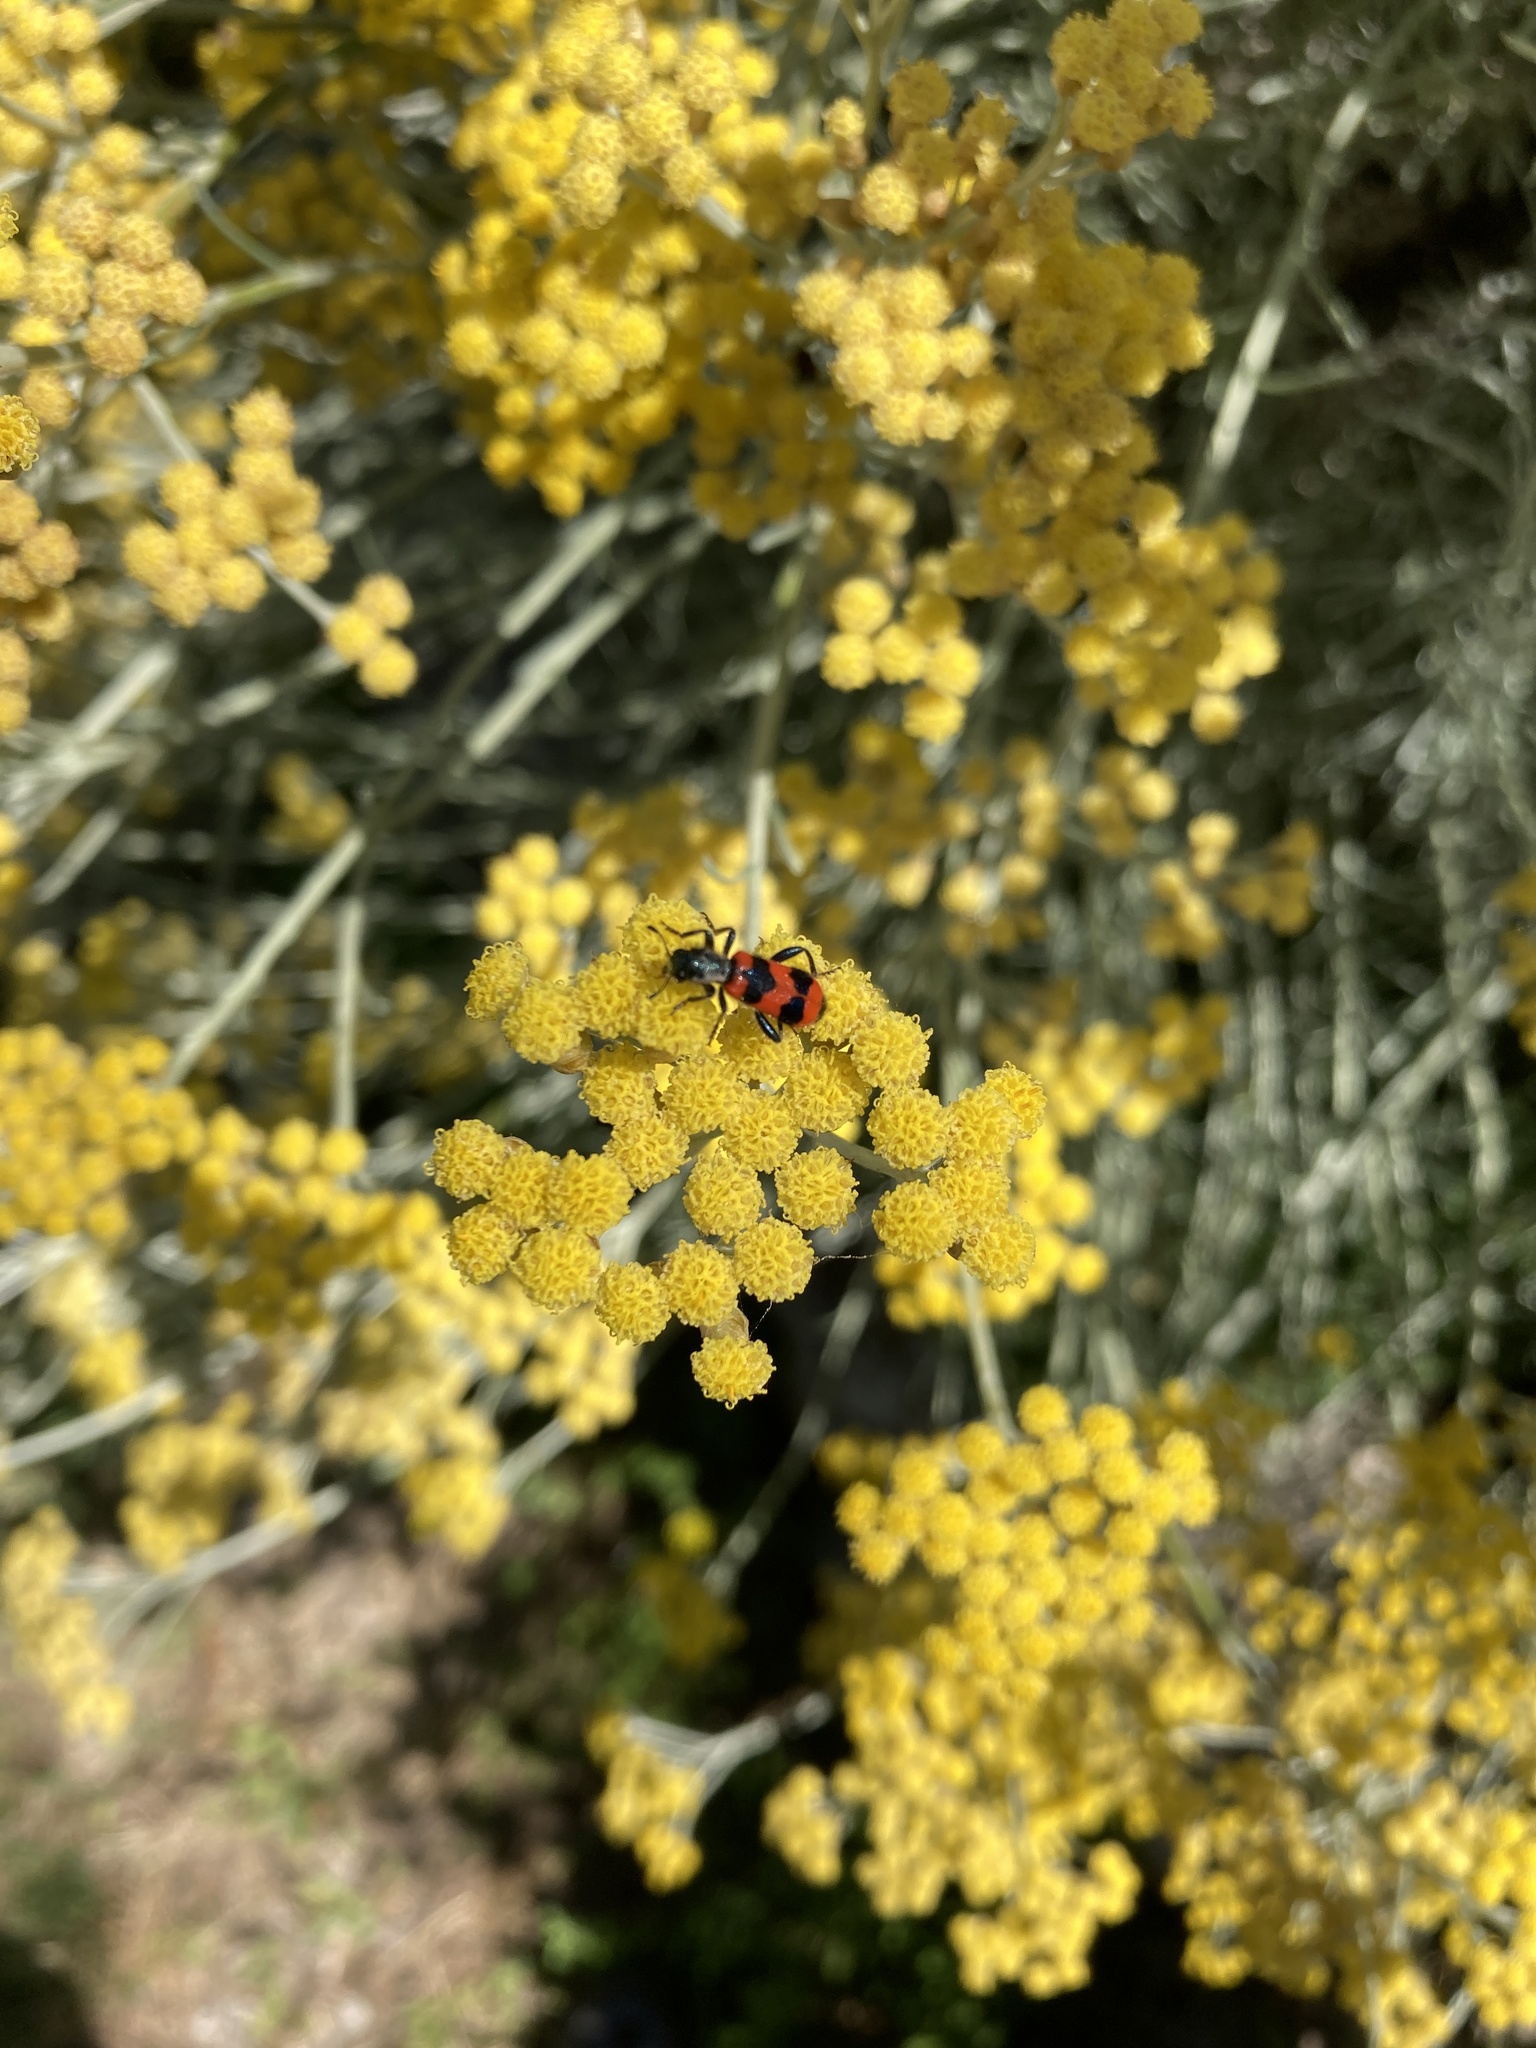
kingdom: Animalia
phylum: Arthropoda
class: Insecta
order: Coleoptera
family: Cleridae
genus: Trichodes
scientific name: Trichodes apiarius
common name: Bee-eating beetle
